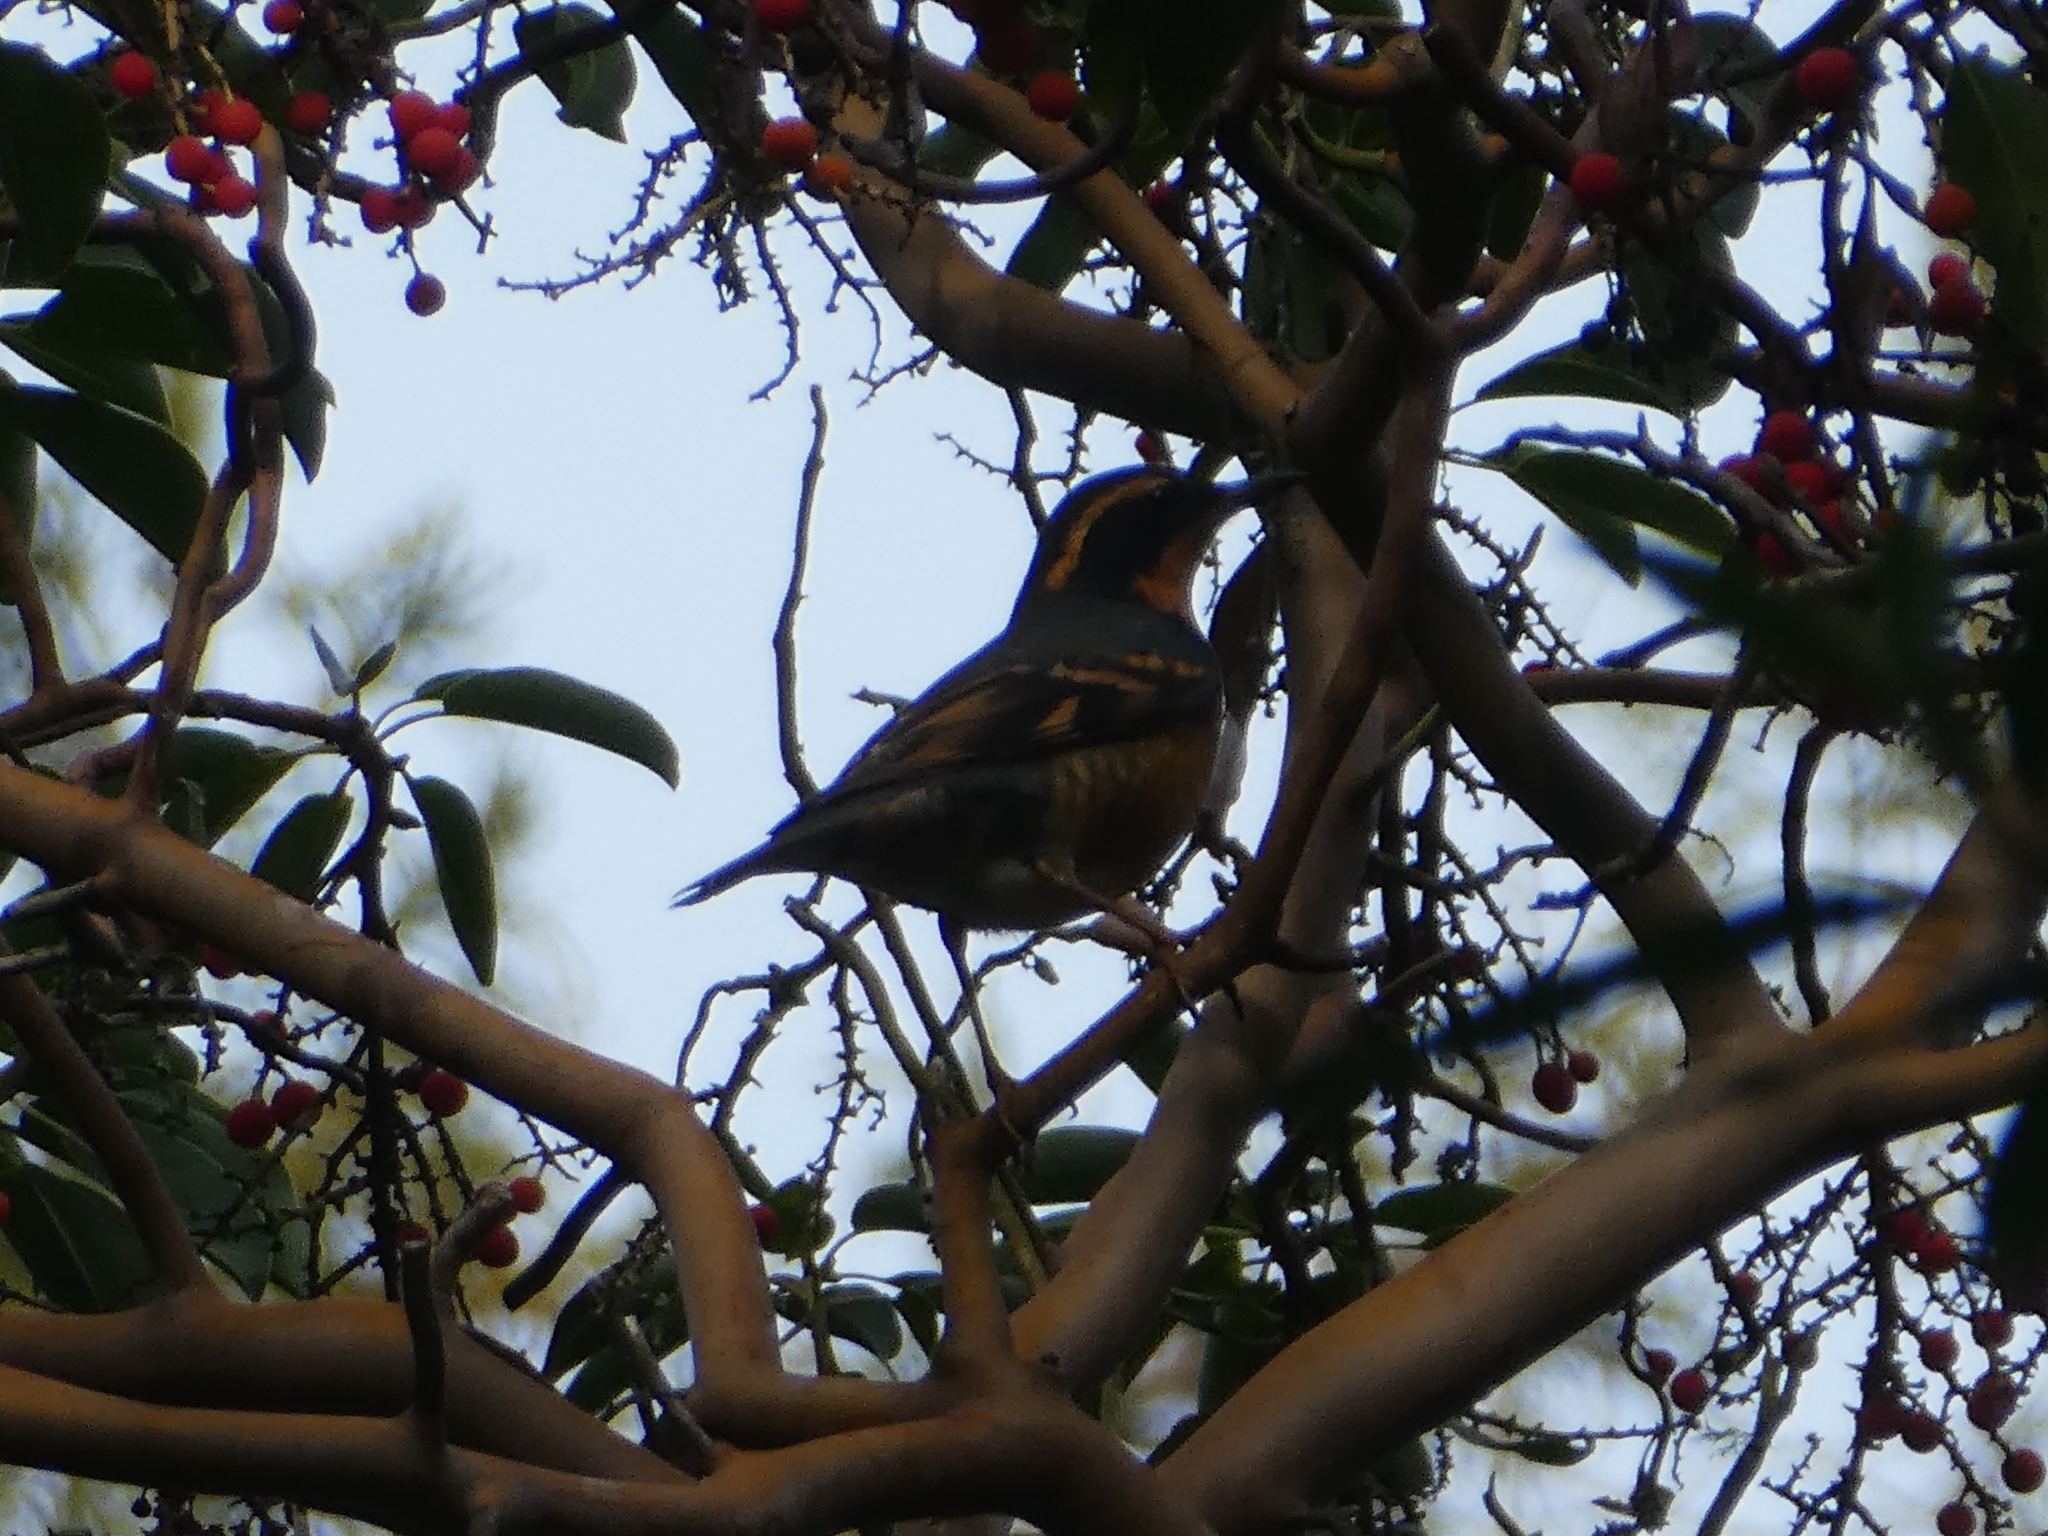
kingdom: Animalia
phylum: Chordata
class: Aves
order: Passeriformes
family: Turdidae
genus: Ixoreus
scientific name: Ixoreus naevius
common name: Varied thrush
